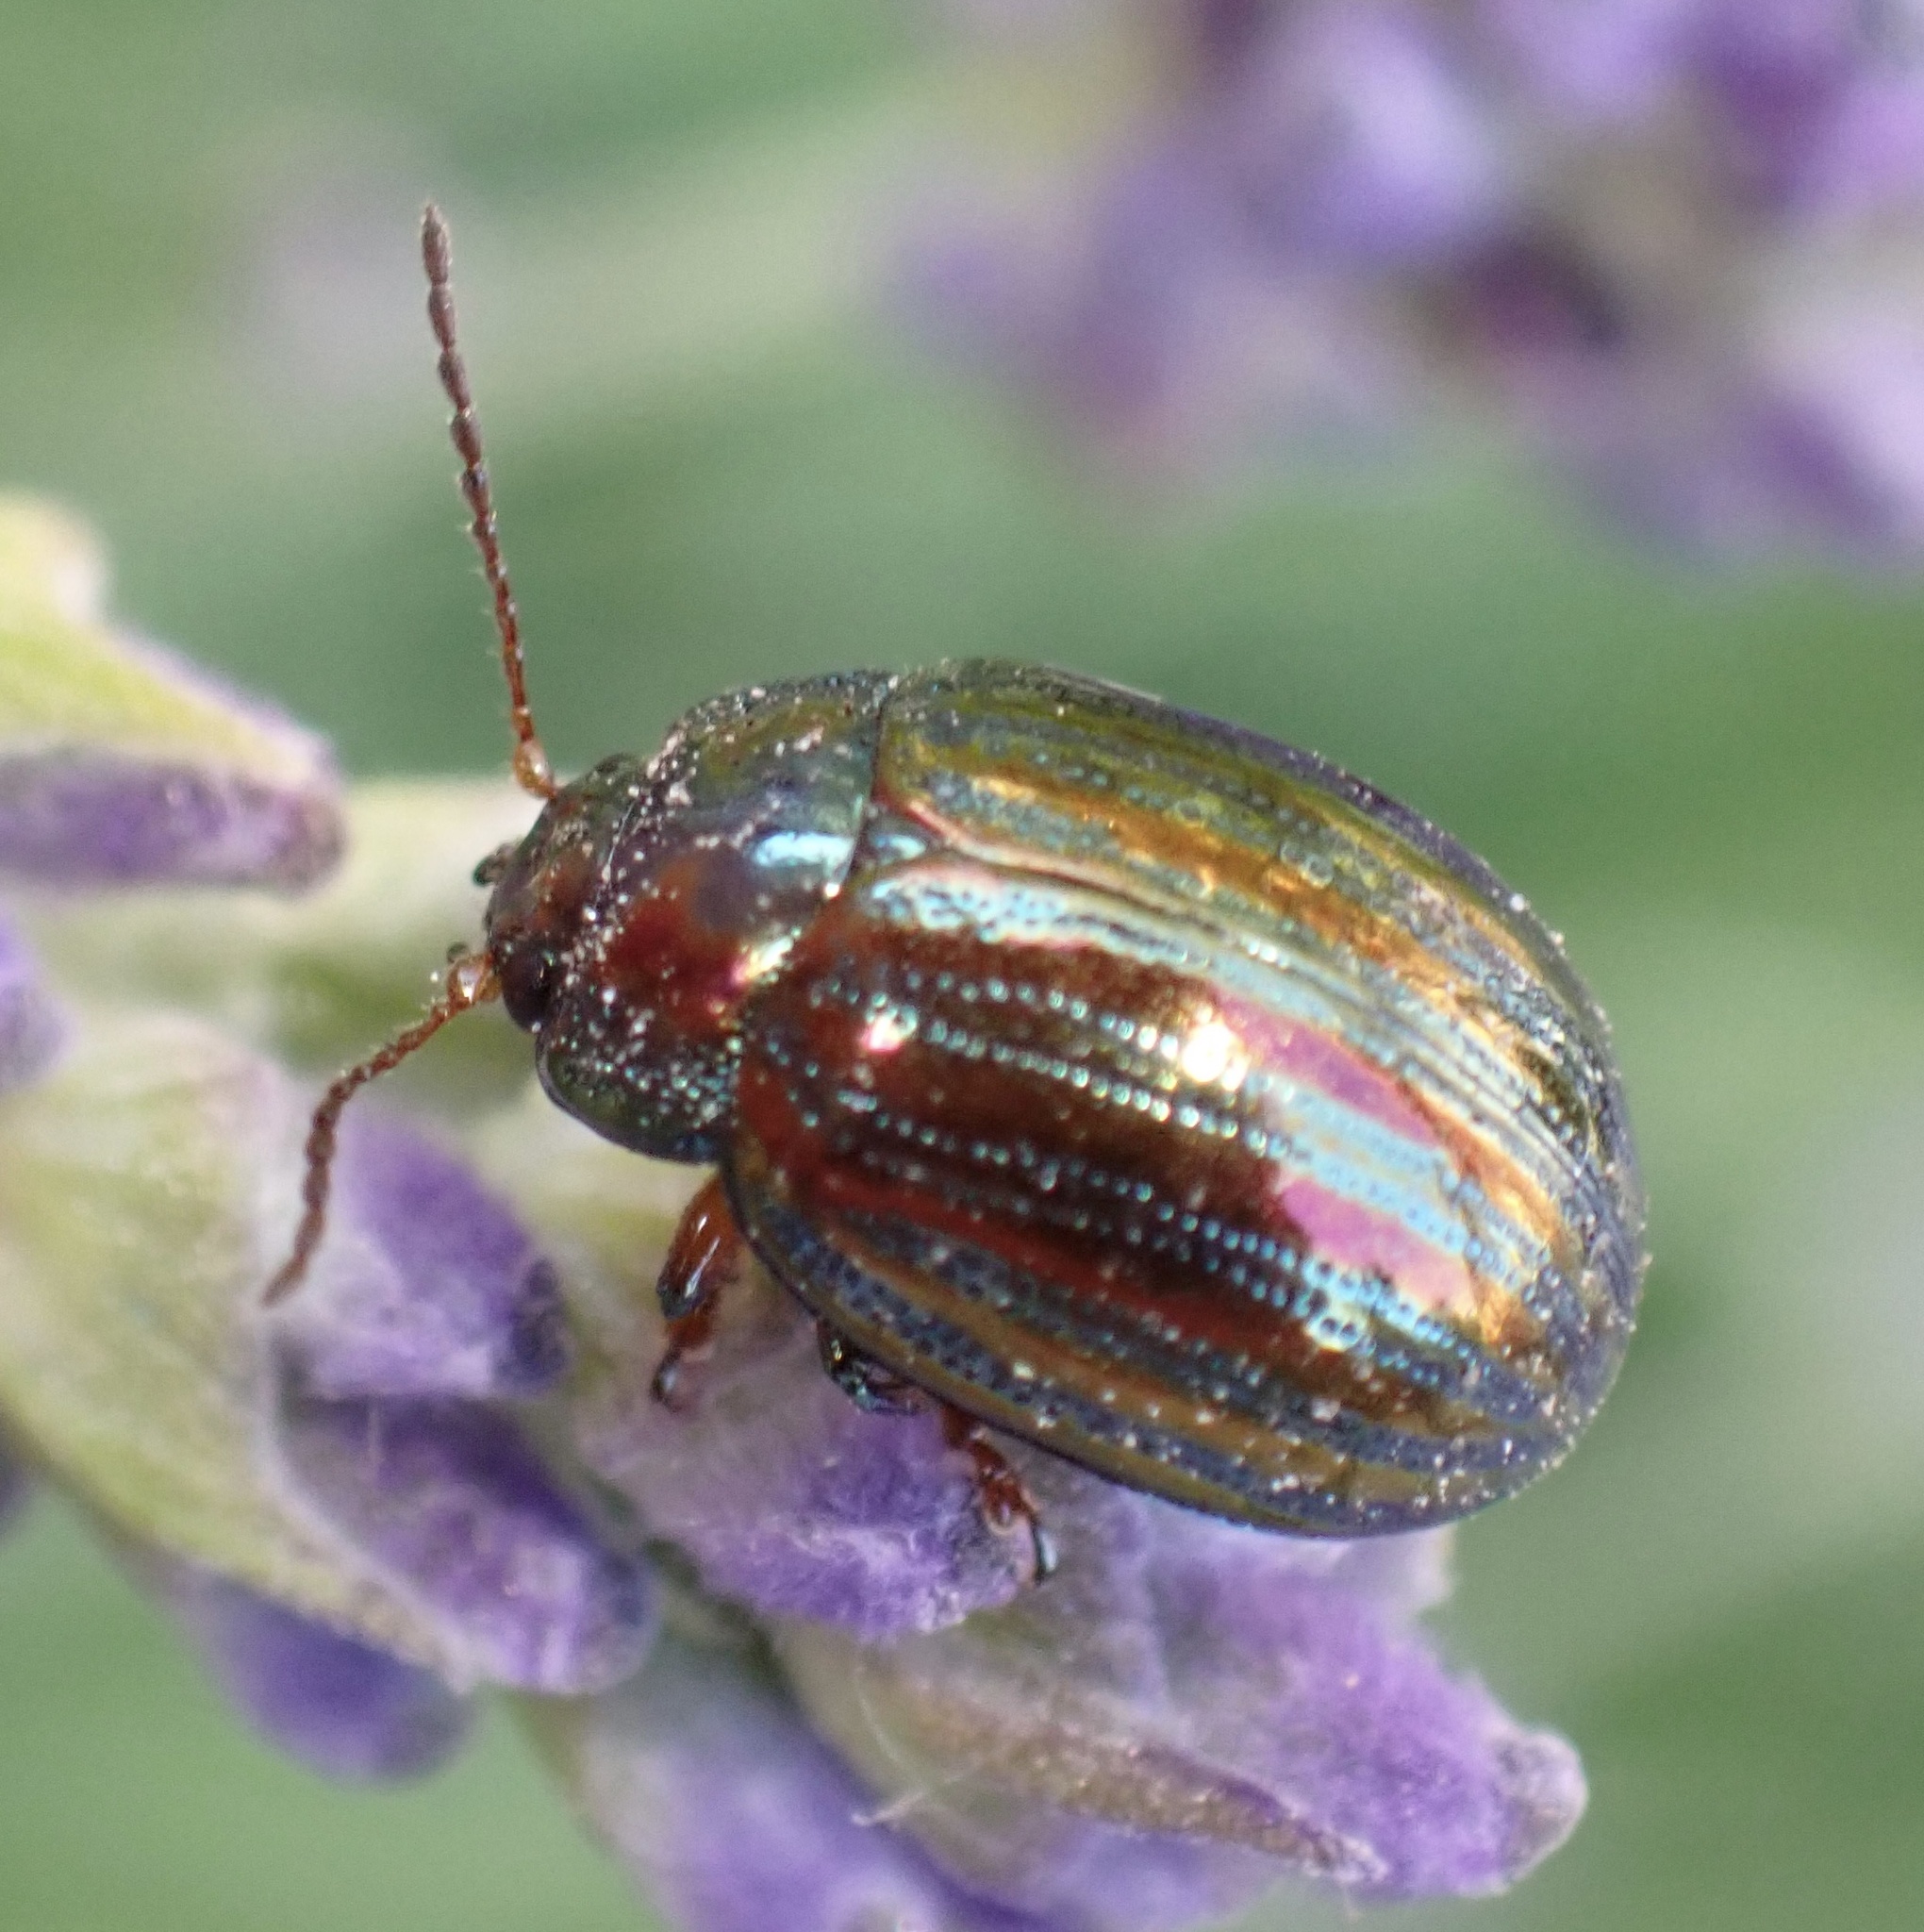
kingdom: Animalia
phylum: Arthropoda
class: Insecta
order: Coleoptera
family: Chrysomelidae
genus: Chrysolina
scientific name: Chrysolina americana
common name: Rosemary beetle
